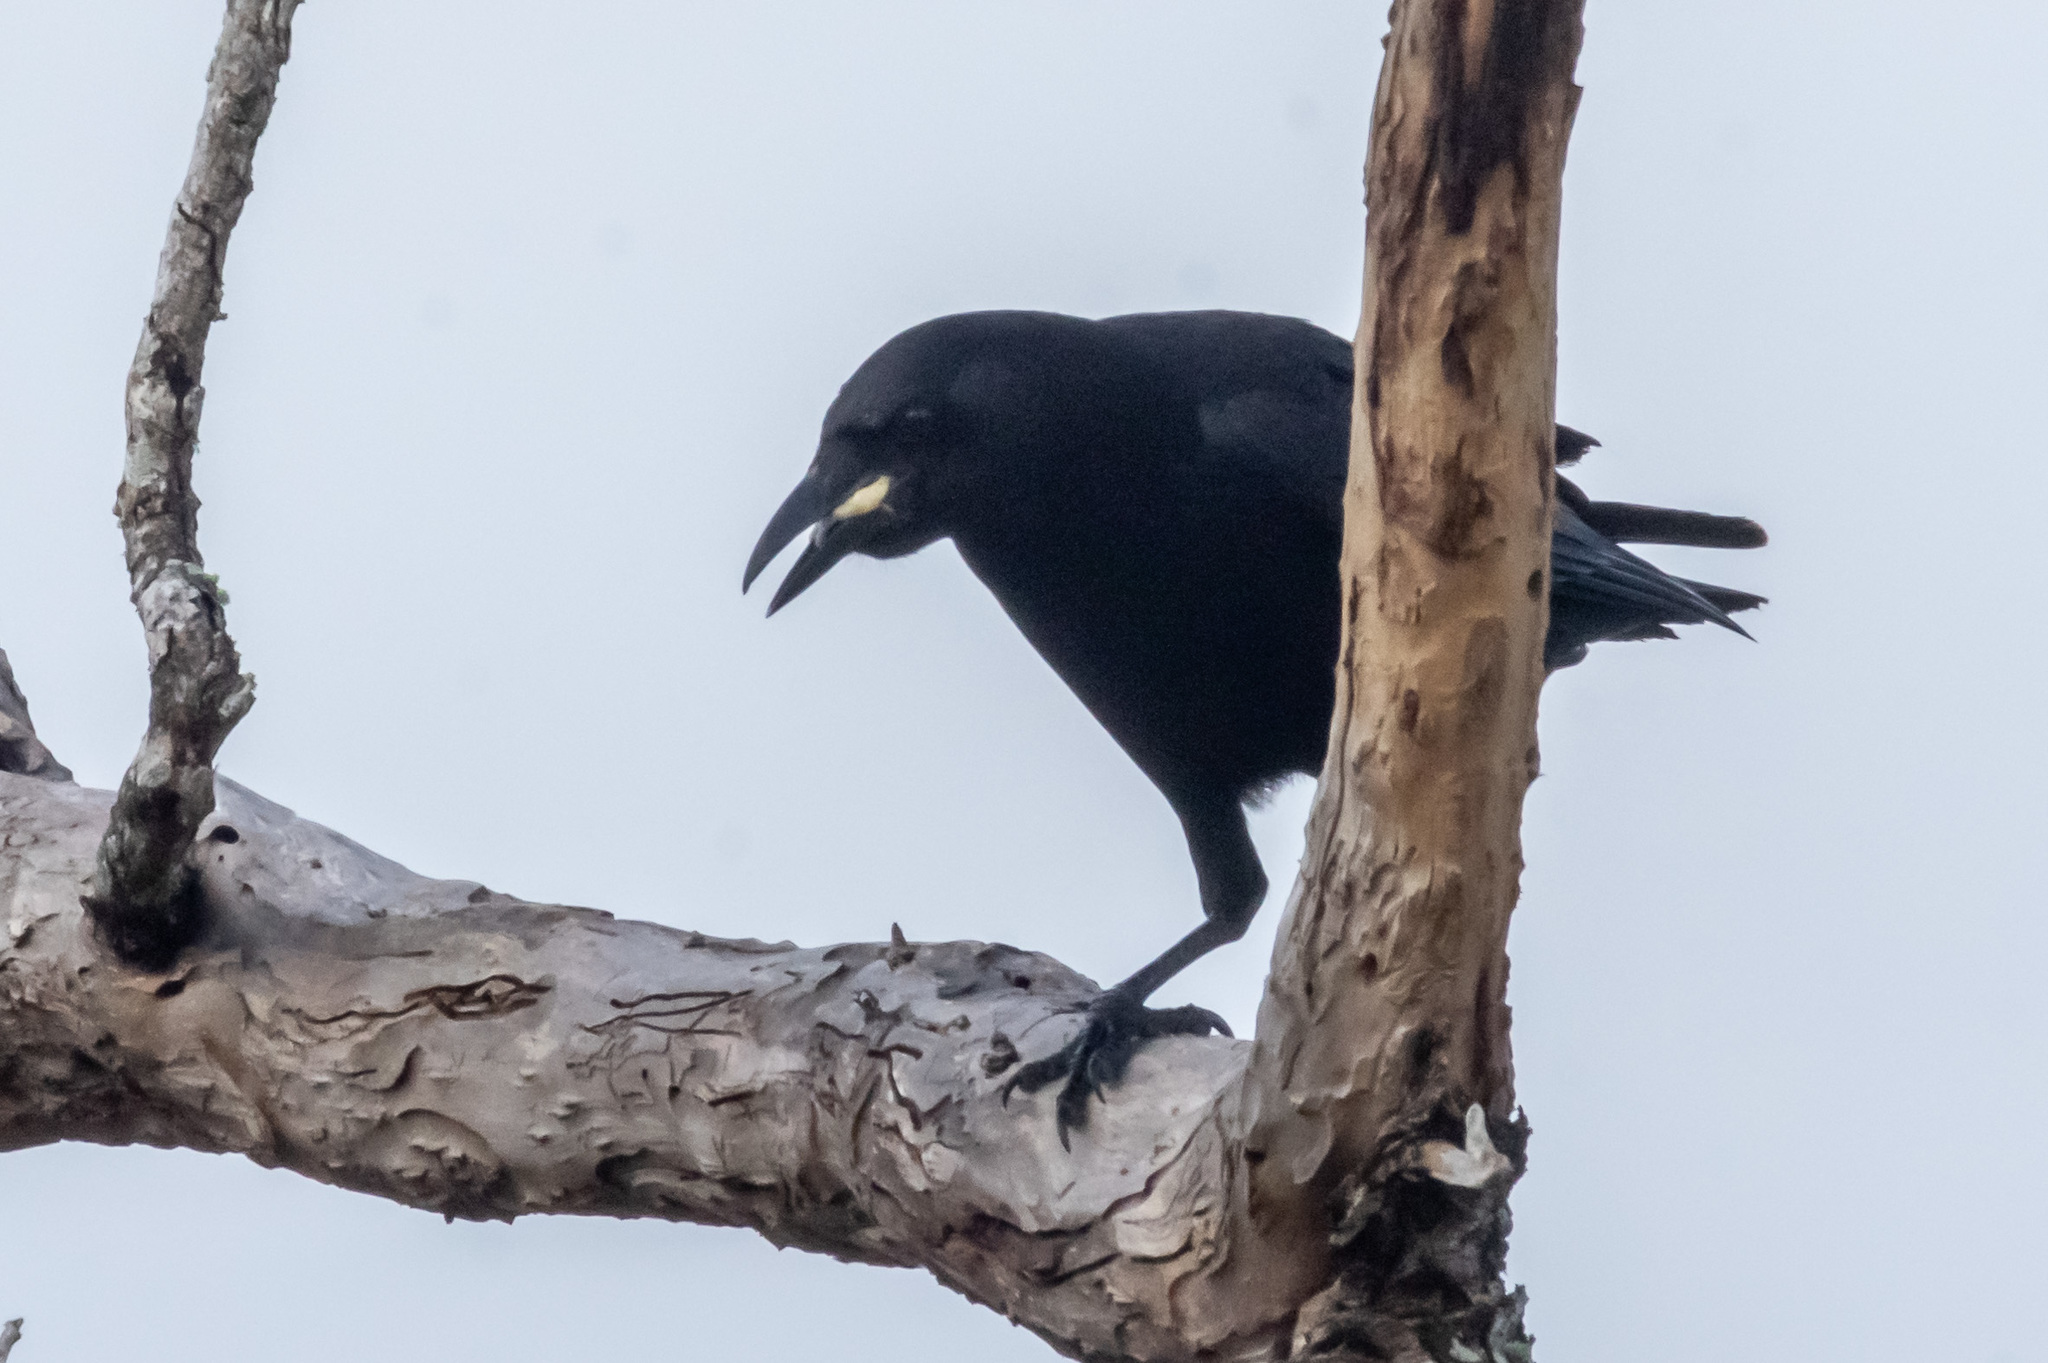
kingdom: Animalia
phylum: Chordata
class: Aves
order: Passeriformes
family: Corvidae
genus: Corvus
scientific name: Corvus brachyrhynchos
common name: American crow
